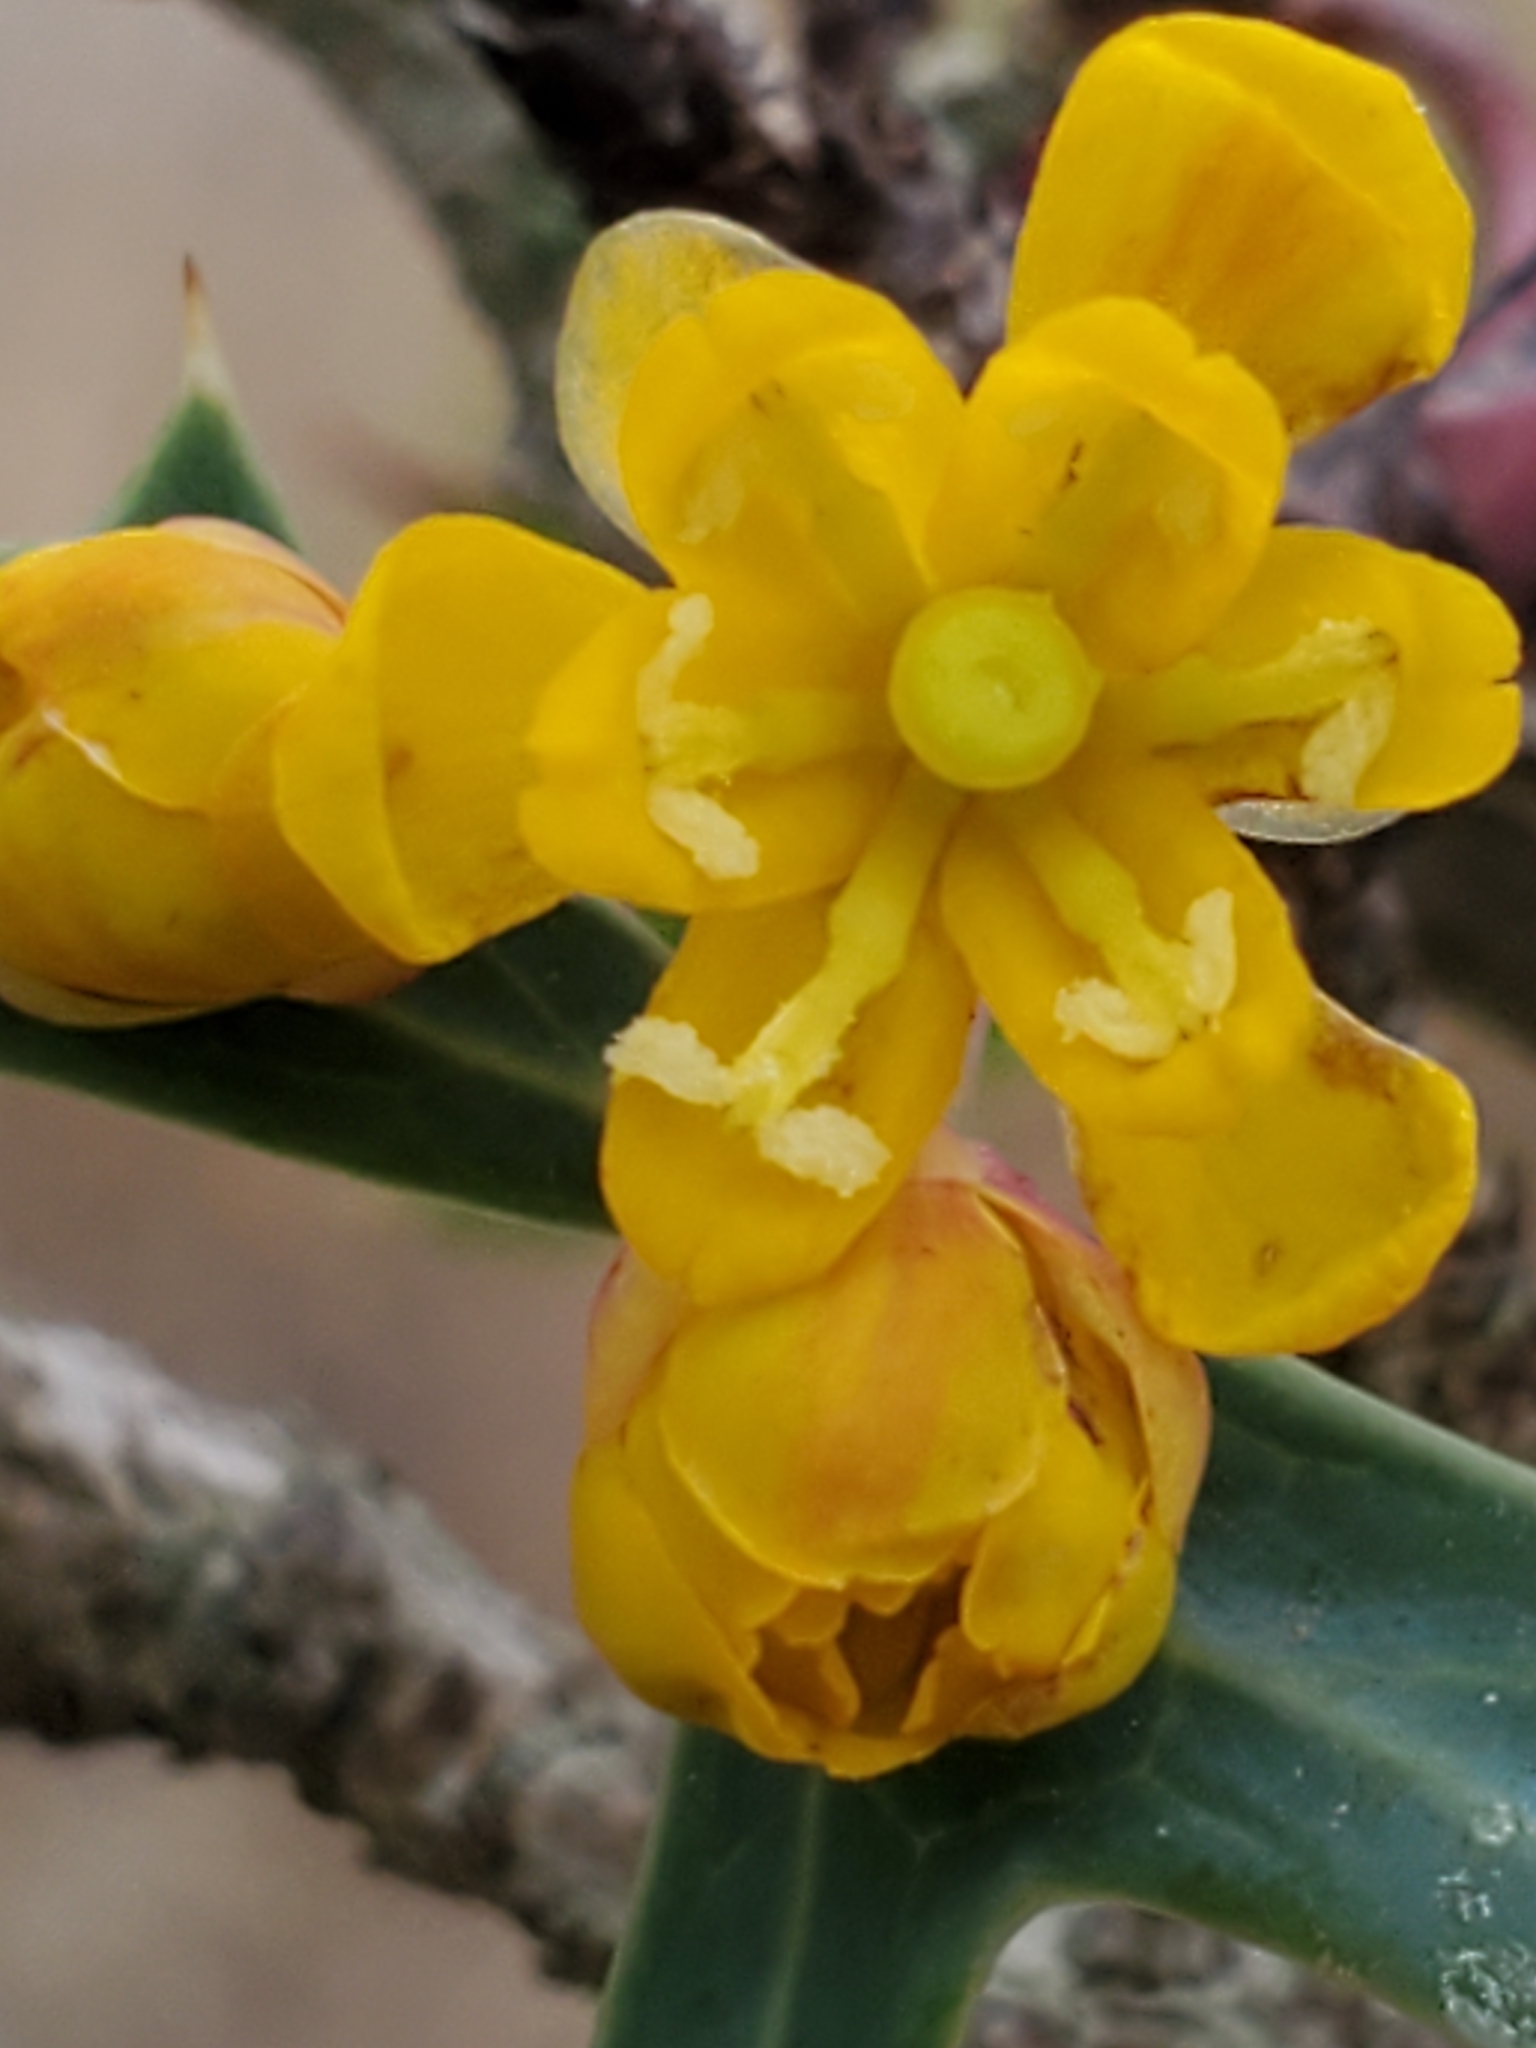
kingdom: Plantae
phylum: Tracheophyta
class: Magnoliopsida
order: Ranunculales
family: Berberidaceae
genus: Alloberberis
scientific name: Alloberberis trifoliolata
